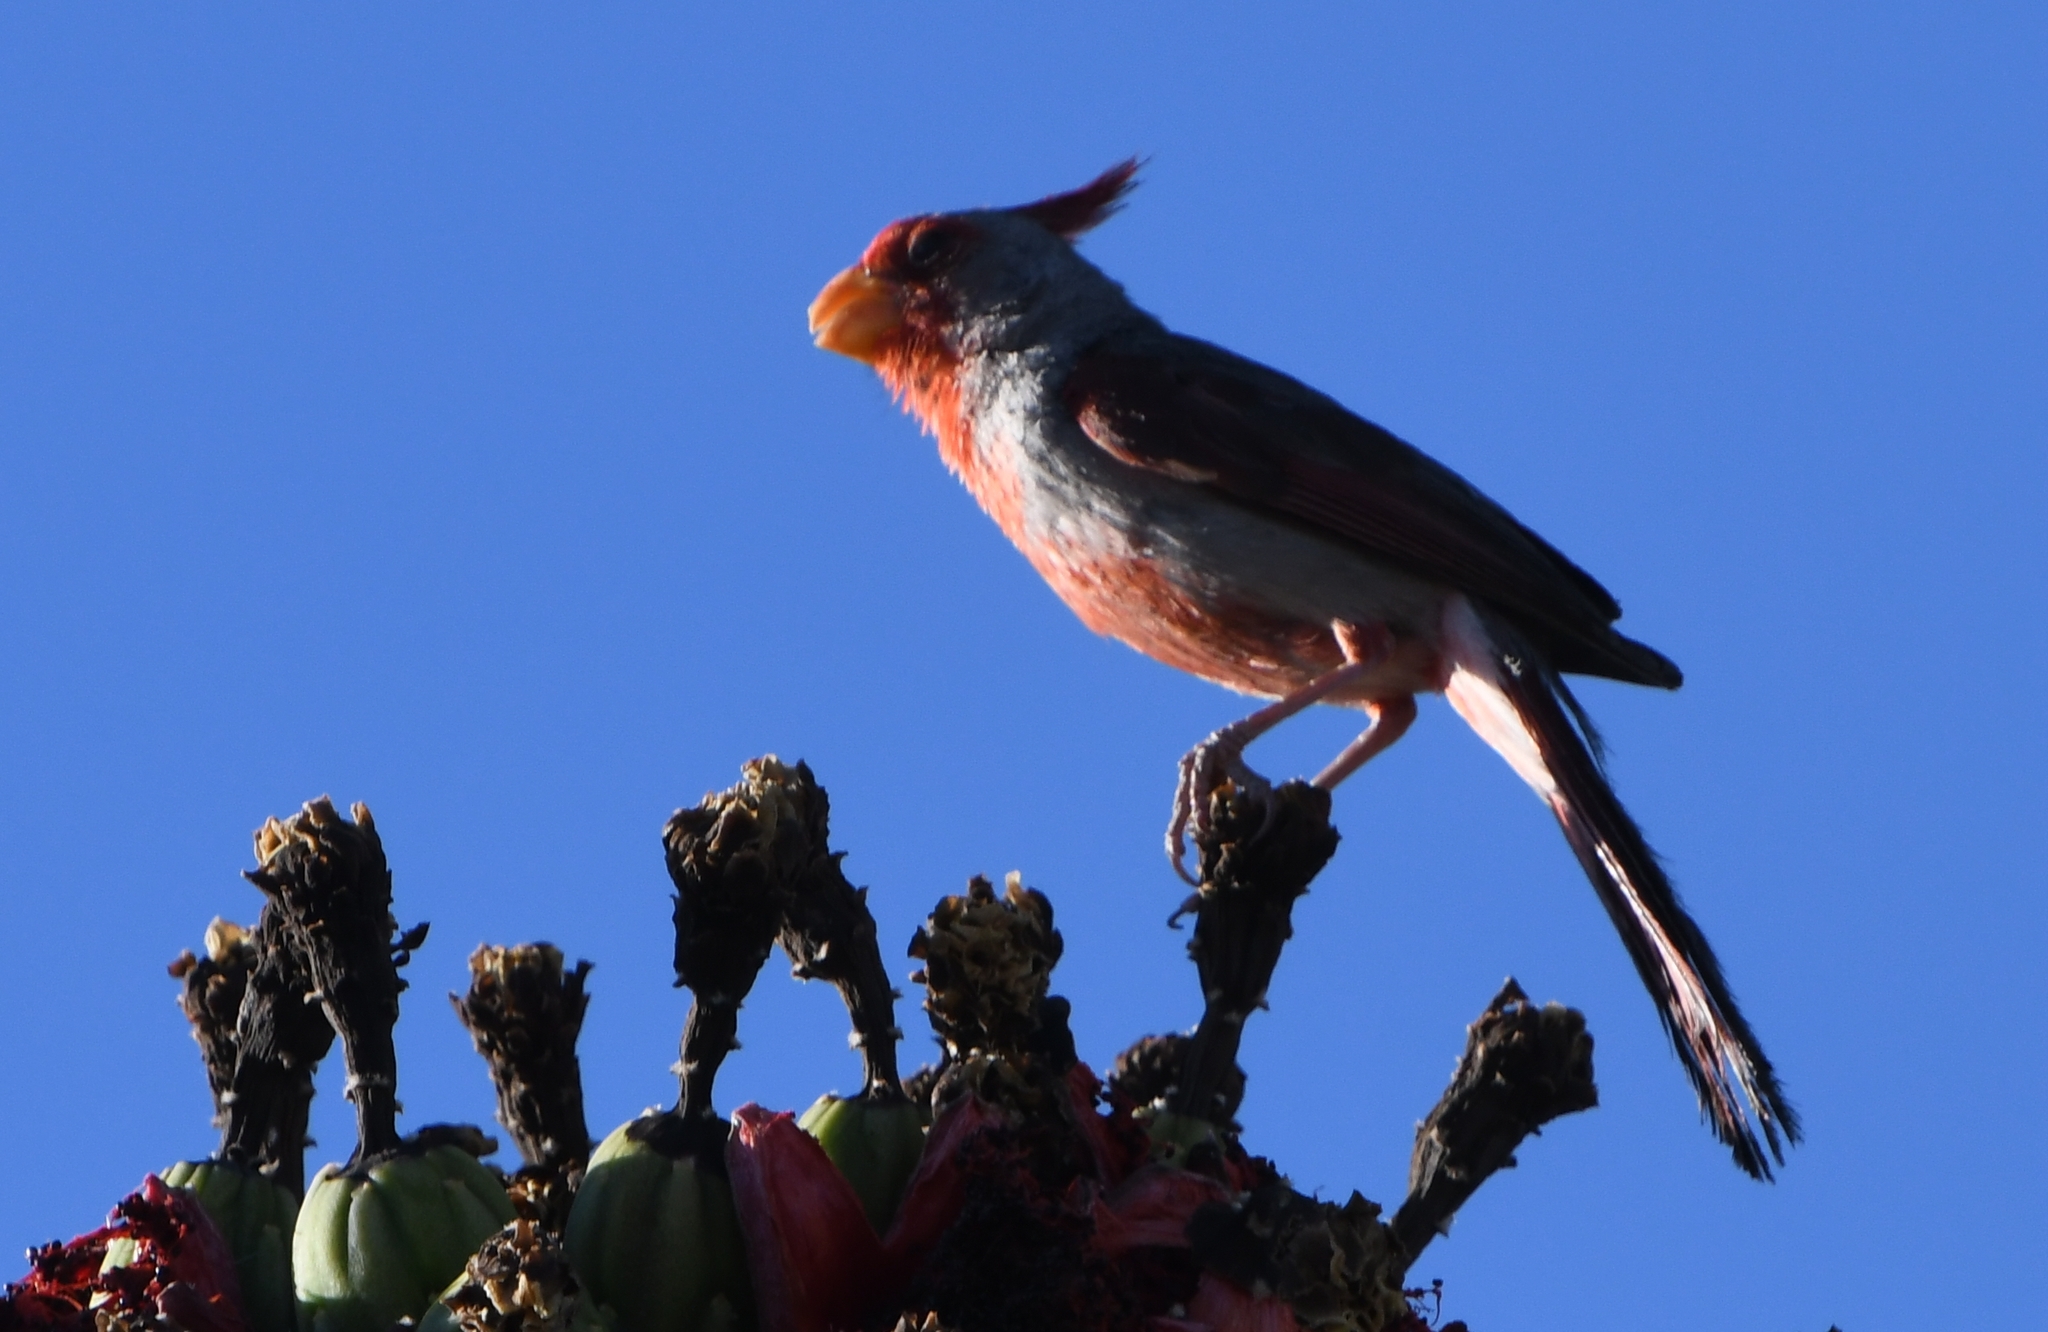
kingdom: Animalia
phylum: Chordata
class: Aves
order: Passeriformes
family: Cardinalidae
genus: Cardinalis
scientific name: Cardinalis sinuatus
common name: Pyrrhuloxia
